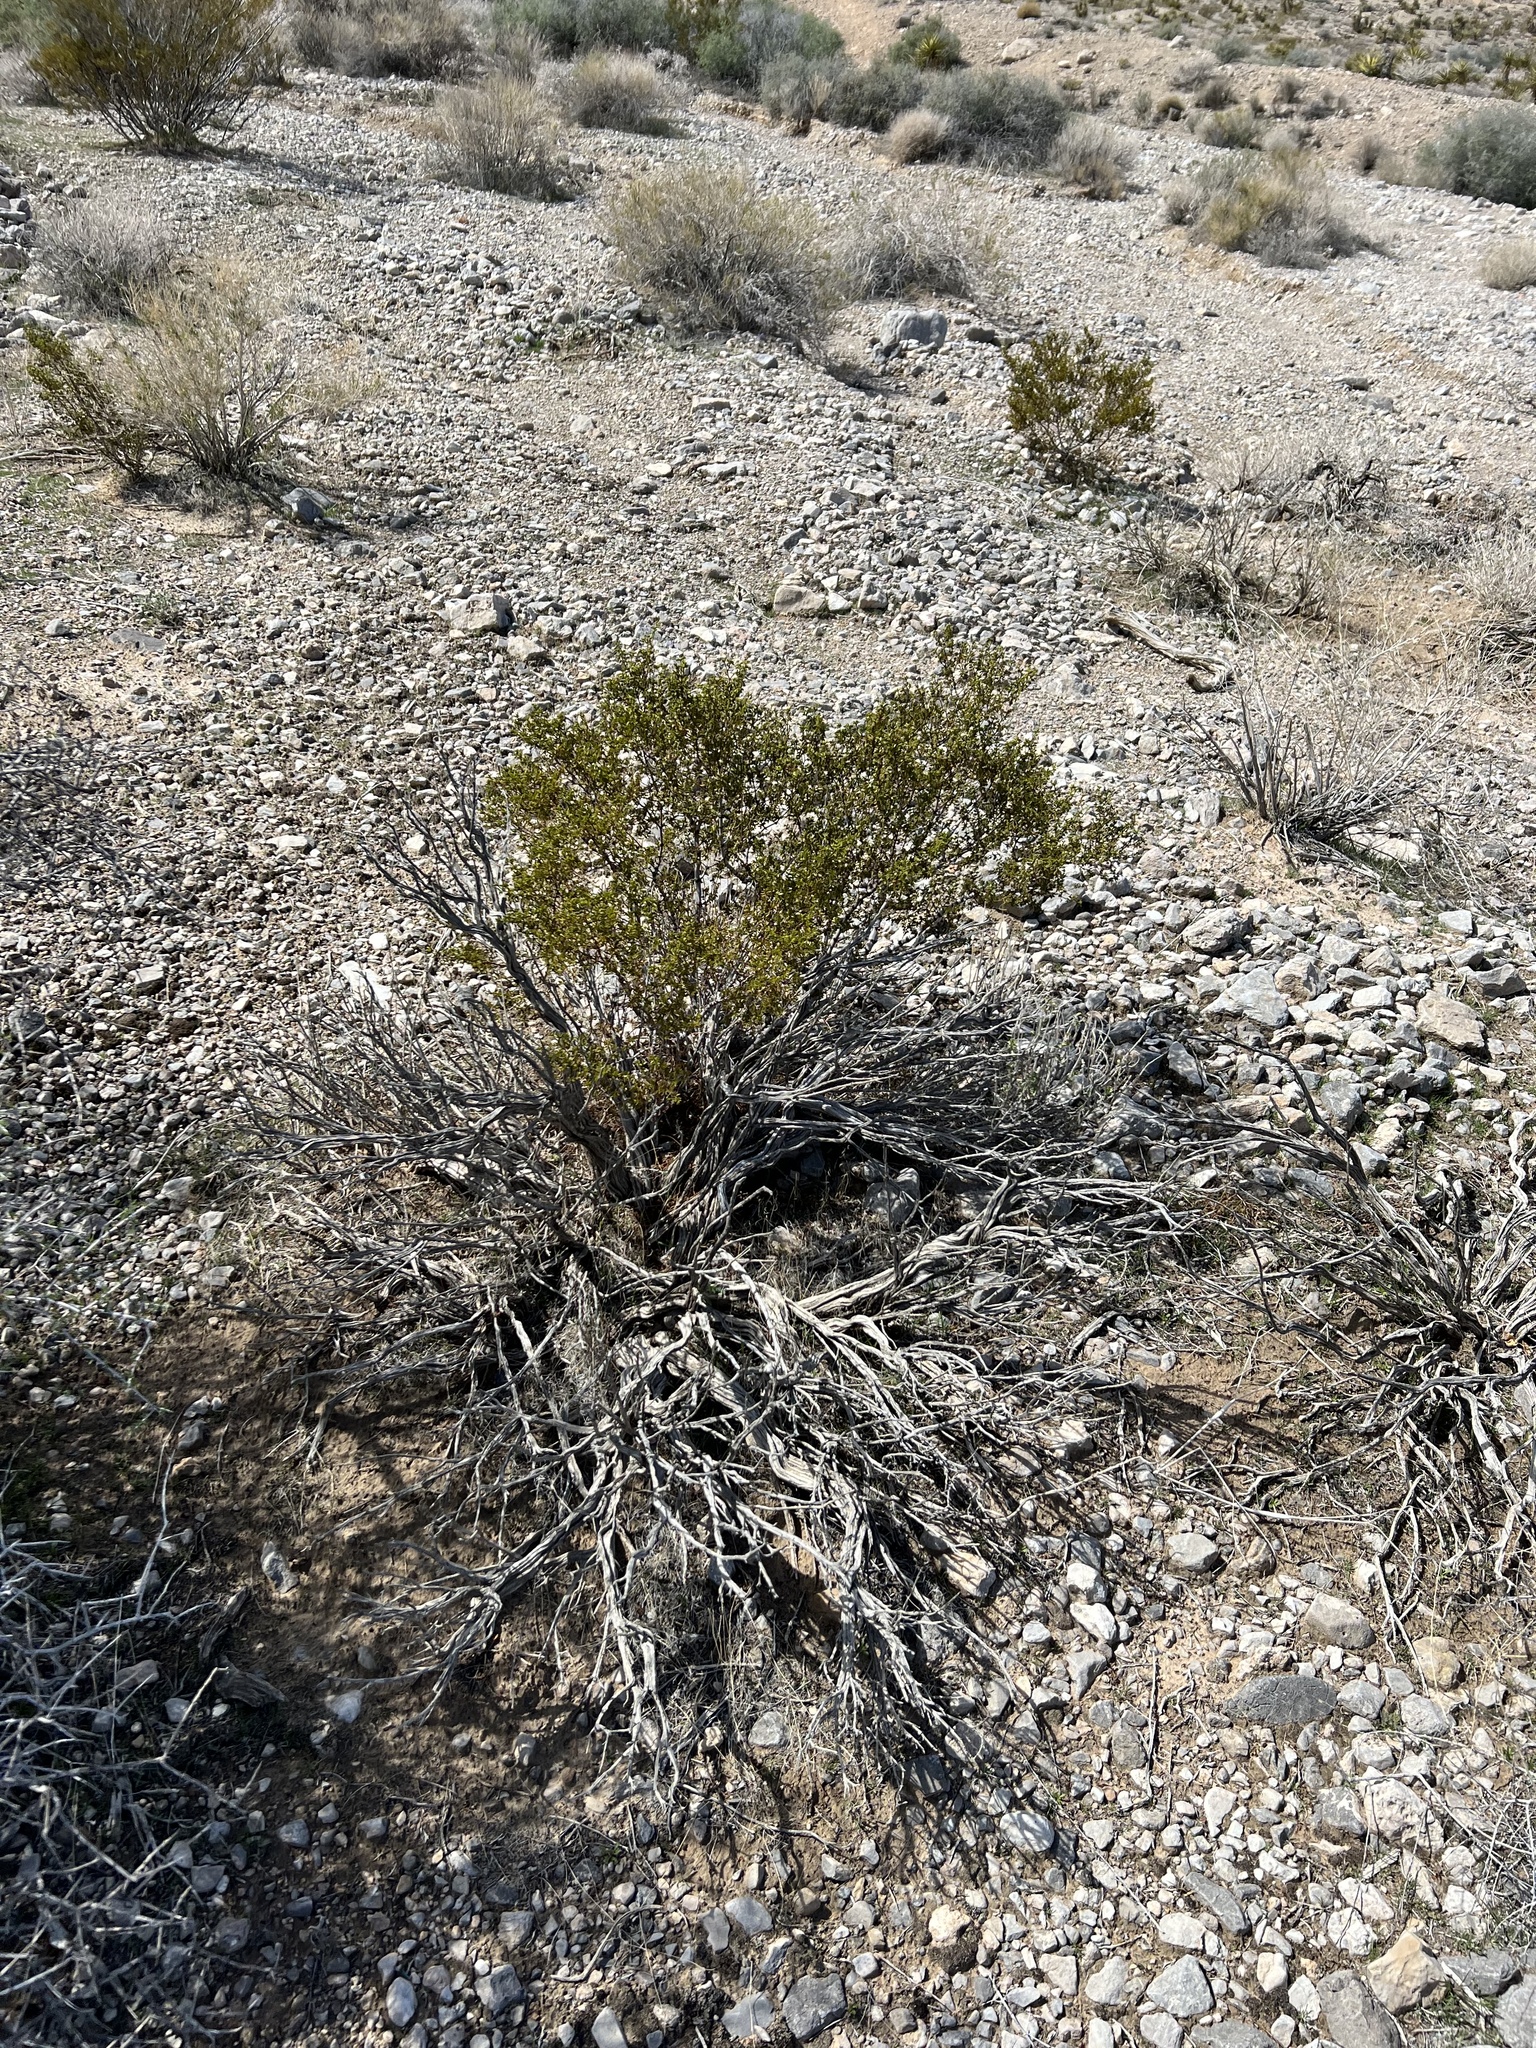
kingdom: Plantae
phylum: Tracheophyta
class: Magnoliopsida
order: Zygophyllales
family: Zygophyllaceae
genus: Larrea
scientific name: Larrea tridentata
